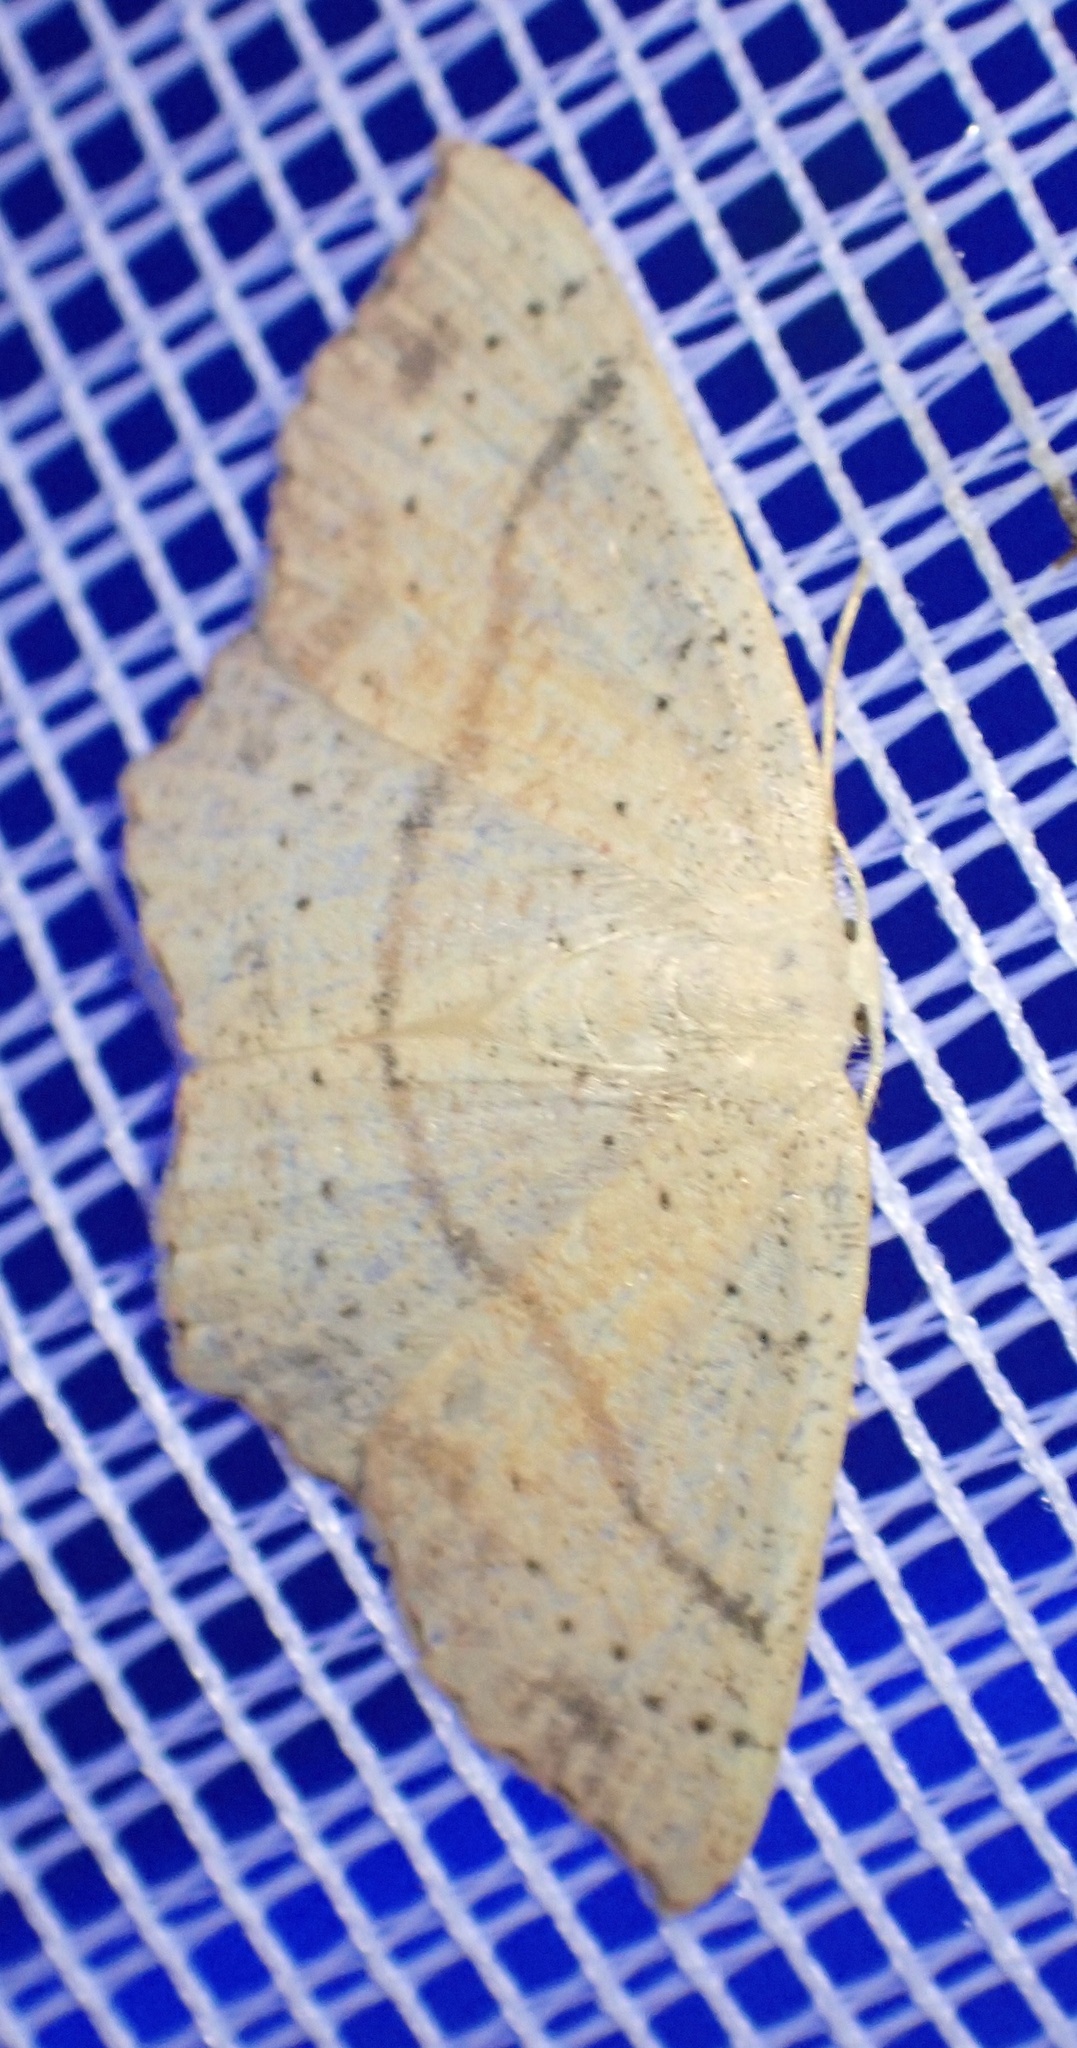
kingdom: Animalia
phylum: Arthropoda
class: Insecta
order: Lepidoptera
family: Geometridae
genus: Cyclophora
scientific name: Cyclophora punctaria
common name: Maiden's blush
